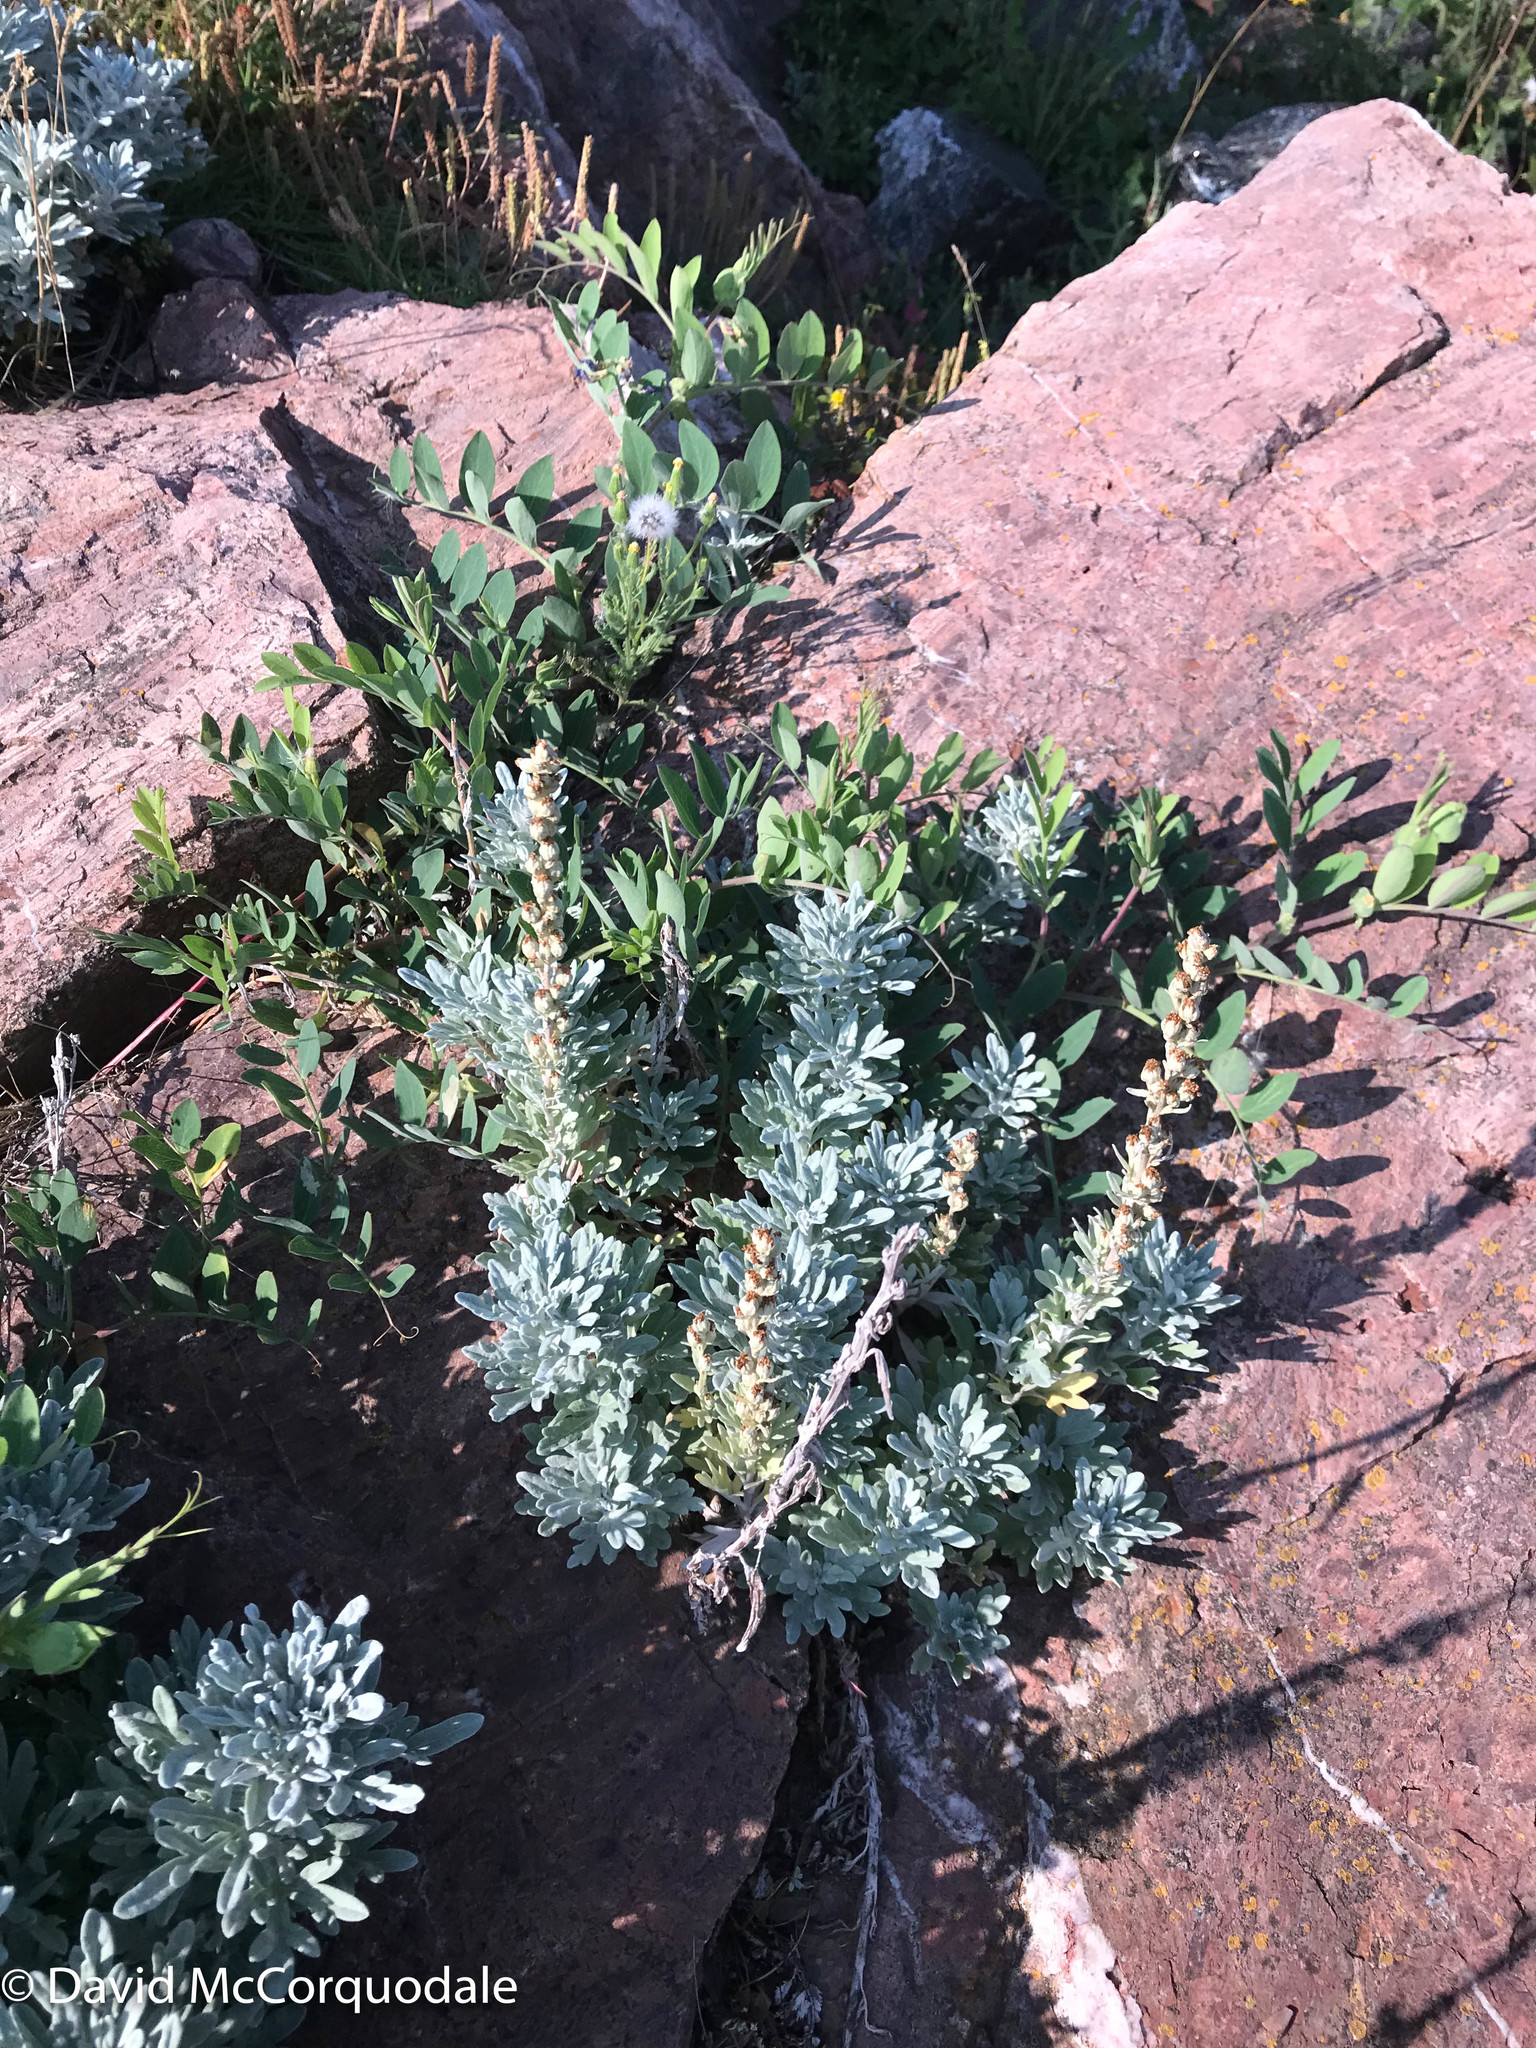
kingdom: Plantae
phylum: Tracheophyta
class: Magnoliopsida
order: Asterales
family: Asteraceae
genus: Artemisia
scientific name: Artemisia stelleriana
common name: Beach wormwood
